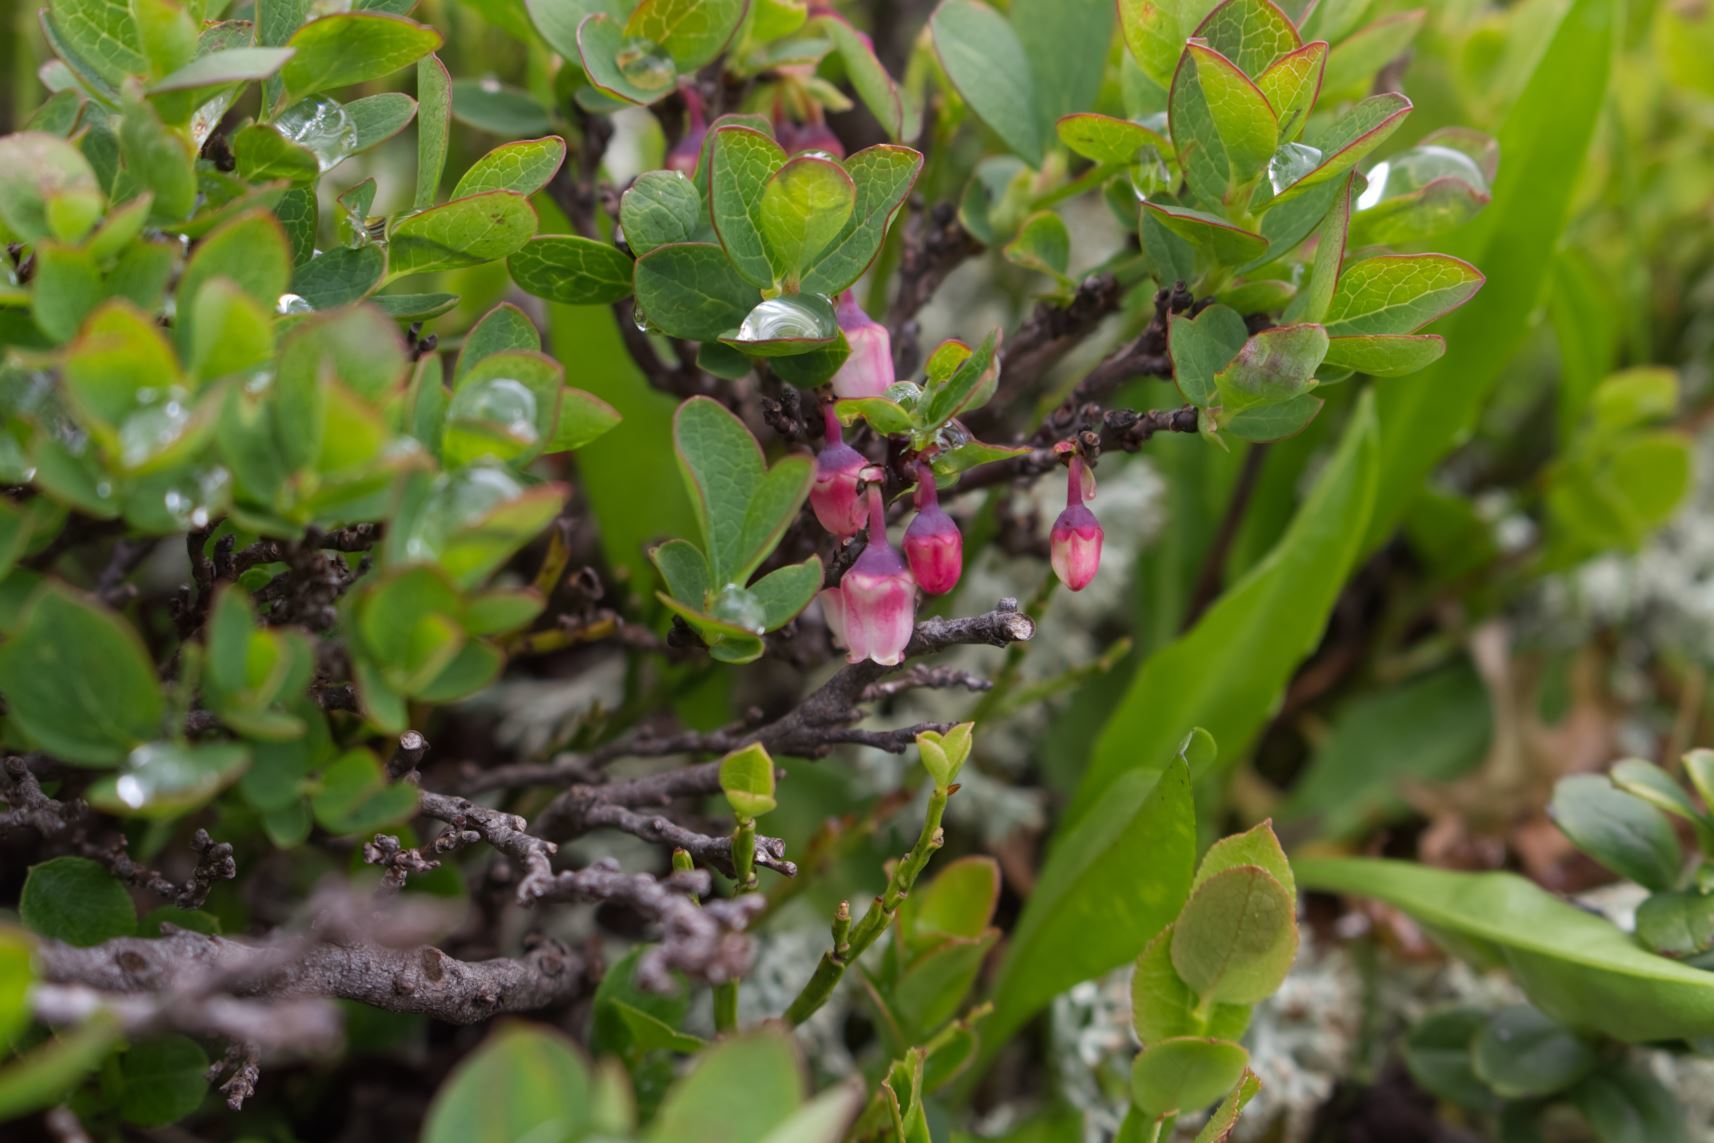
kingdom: Plantae
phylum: Tracheophyta
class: Magnoliopsida
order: Ericales
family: Ericaceae
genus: Vaccinium
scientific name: Vaccinium uliginosum
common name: Bog bilberry
